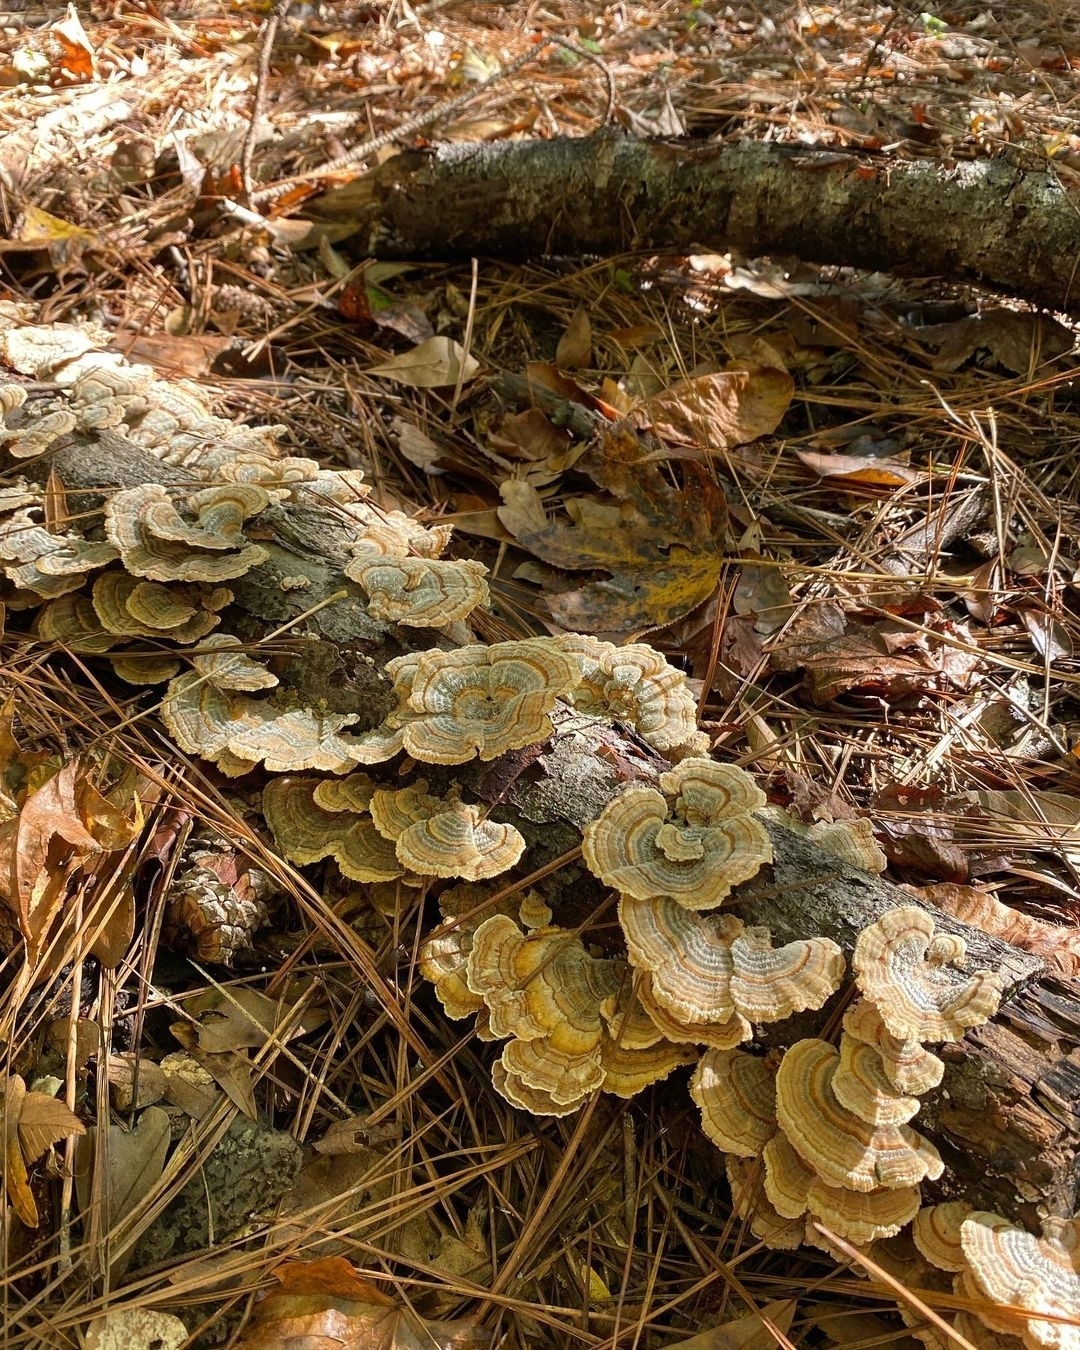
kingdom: Fungi
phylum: Basidiomycota
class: Agaricomycetes
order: Polyporales
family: Polyporaceae
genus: Trametes
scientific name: Trametes versicolor
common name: Turkeytail
